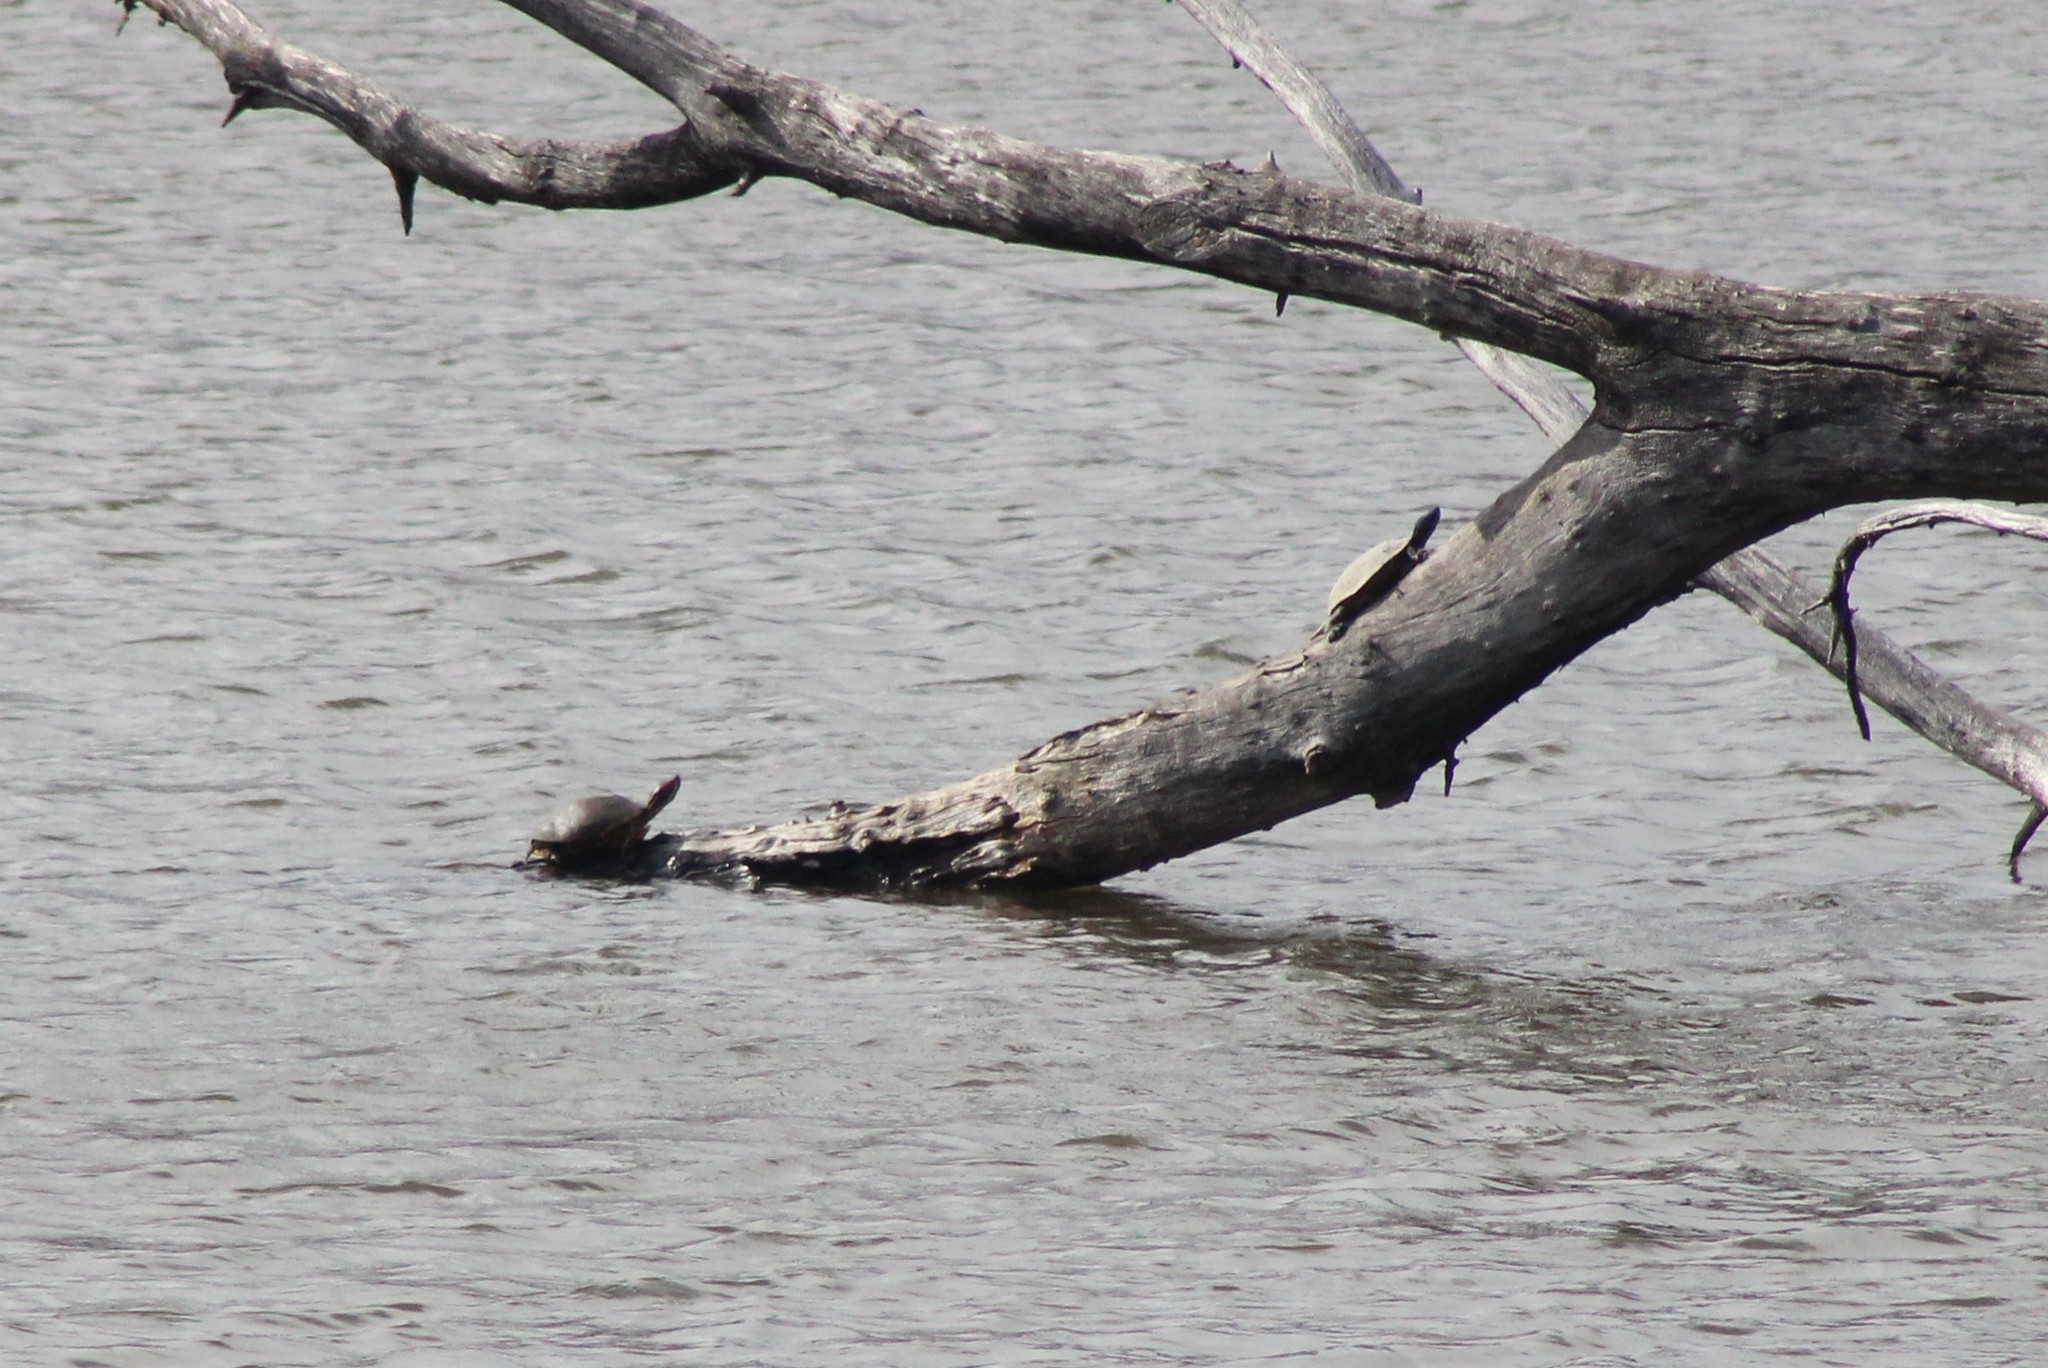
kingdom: Animalia
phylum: Chordata
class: Testudines
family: Emydidae
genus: Trachemys
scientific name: Trachemys scripta
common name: Slider
